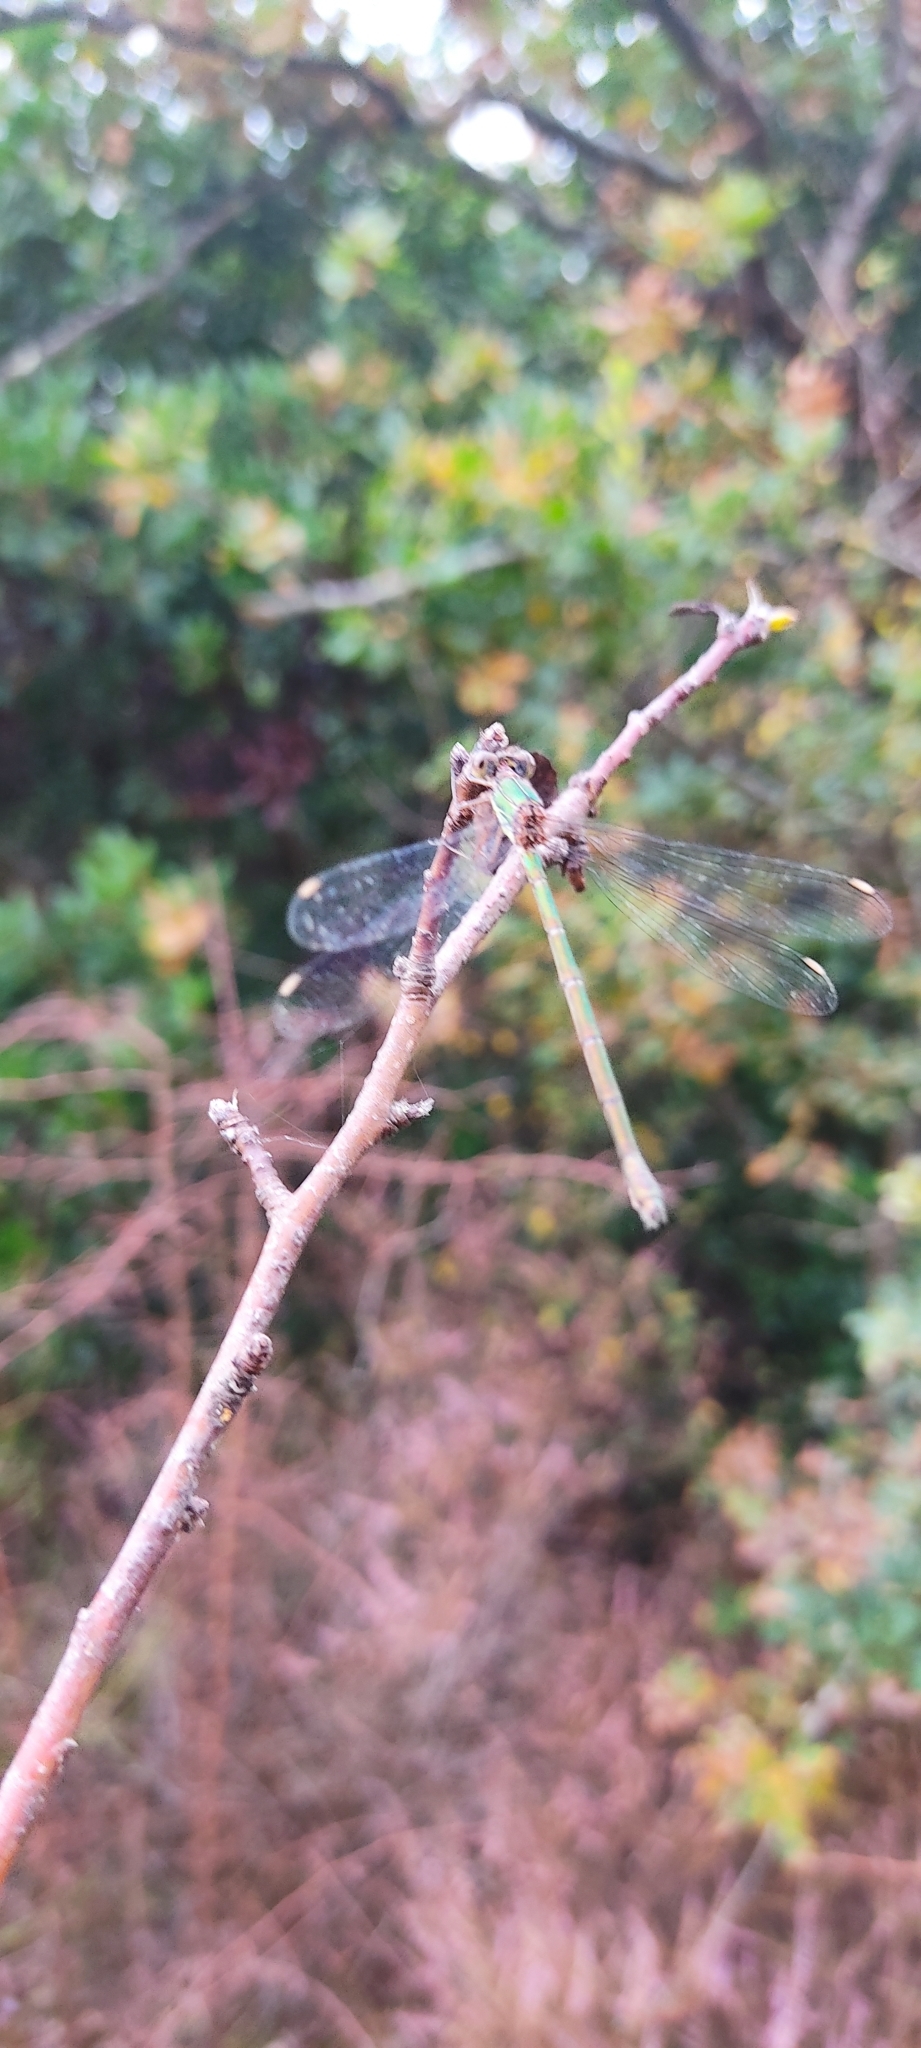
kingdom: Animalia
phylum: Arthropoda
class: Insecta
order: Odonata
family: Lestidae
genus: Chalcolestes
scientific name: Chalcolestes viridis
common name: Green emerald damselfly
